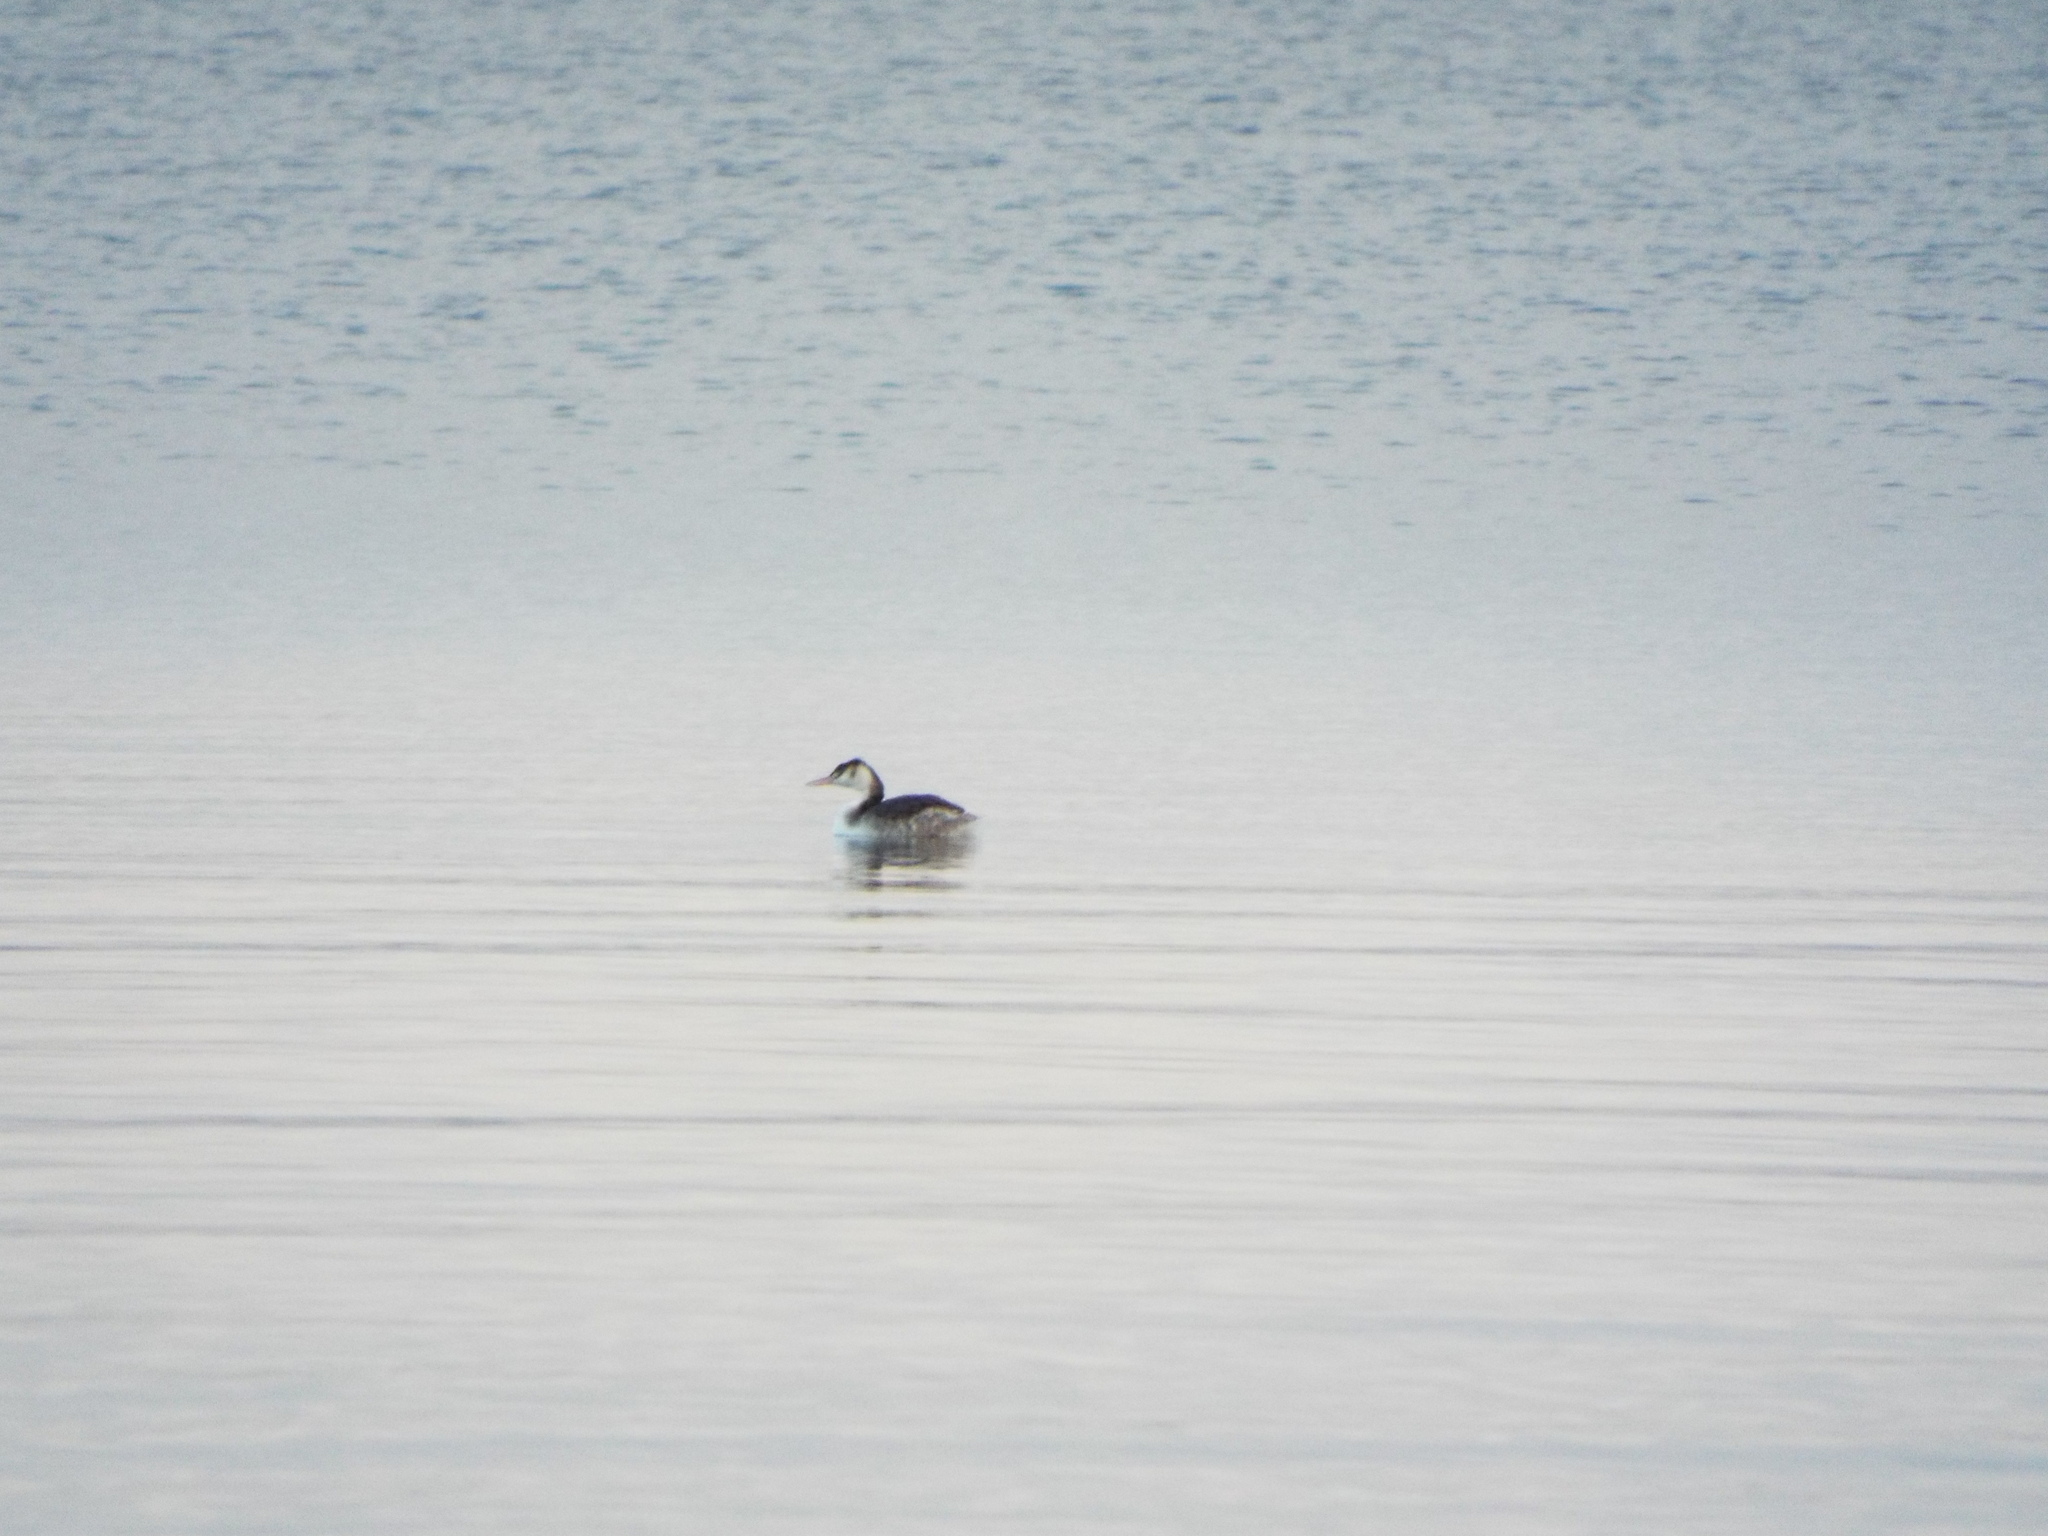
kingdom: Animalia
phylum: Chordata
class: Aves
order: Podicipediformes
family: Podicipedidae
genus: Podiceps
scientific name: Podiceps cristatus
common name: Great crested grebe
